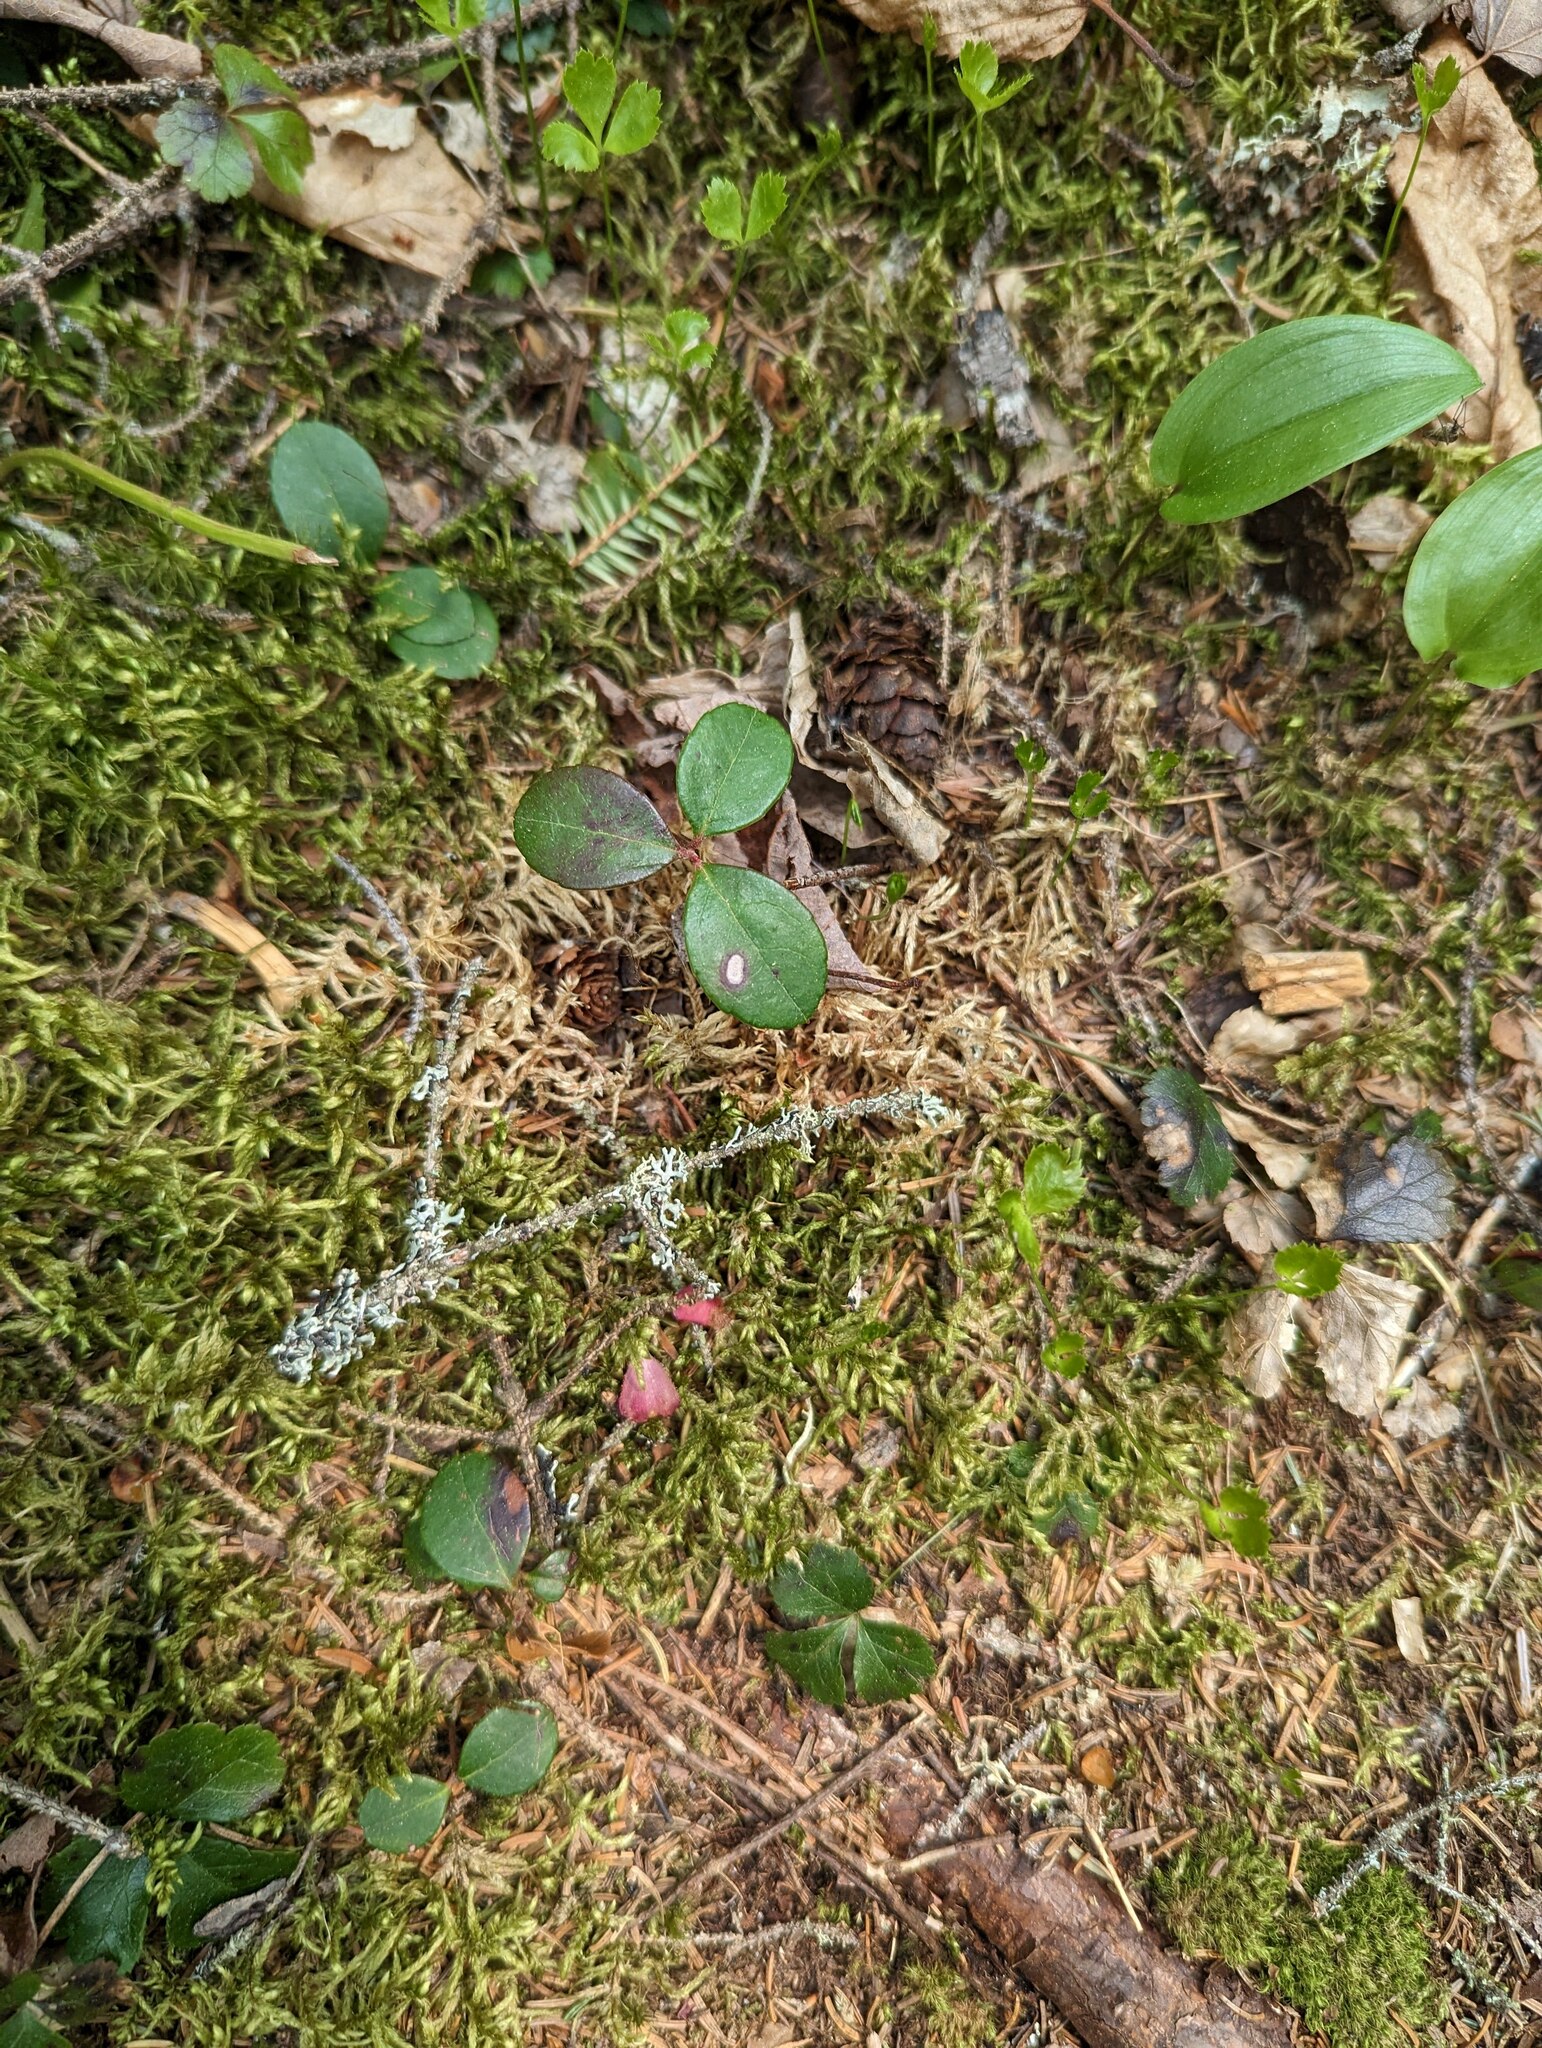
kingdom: Plantae
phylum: Tracheophyta
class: Magnoliopsida
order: Ericales
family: Ericaceae
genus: Gaultheria
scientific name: Gaultheria procumbens
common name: Checkerberry
